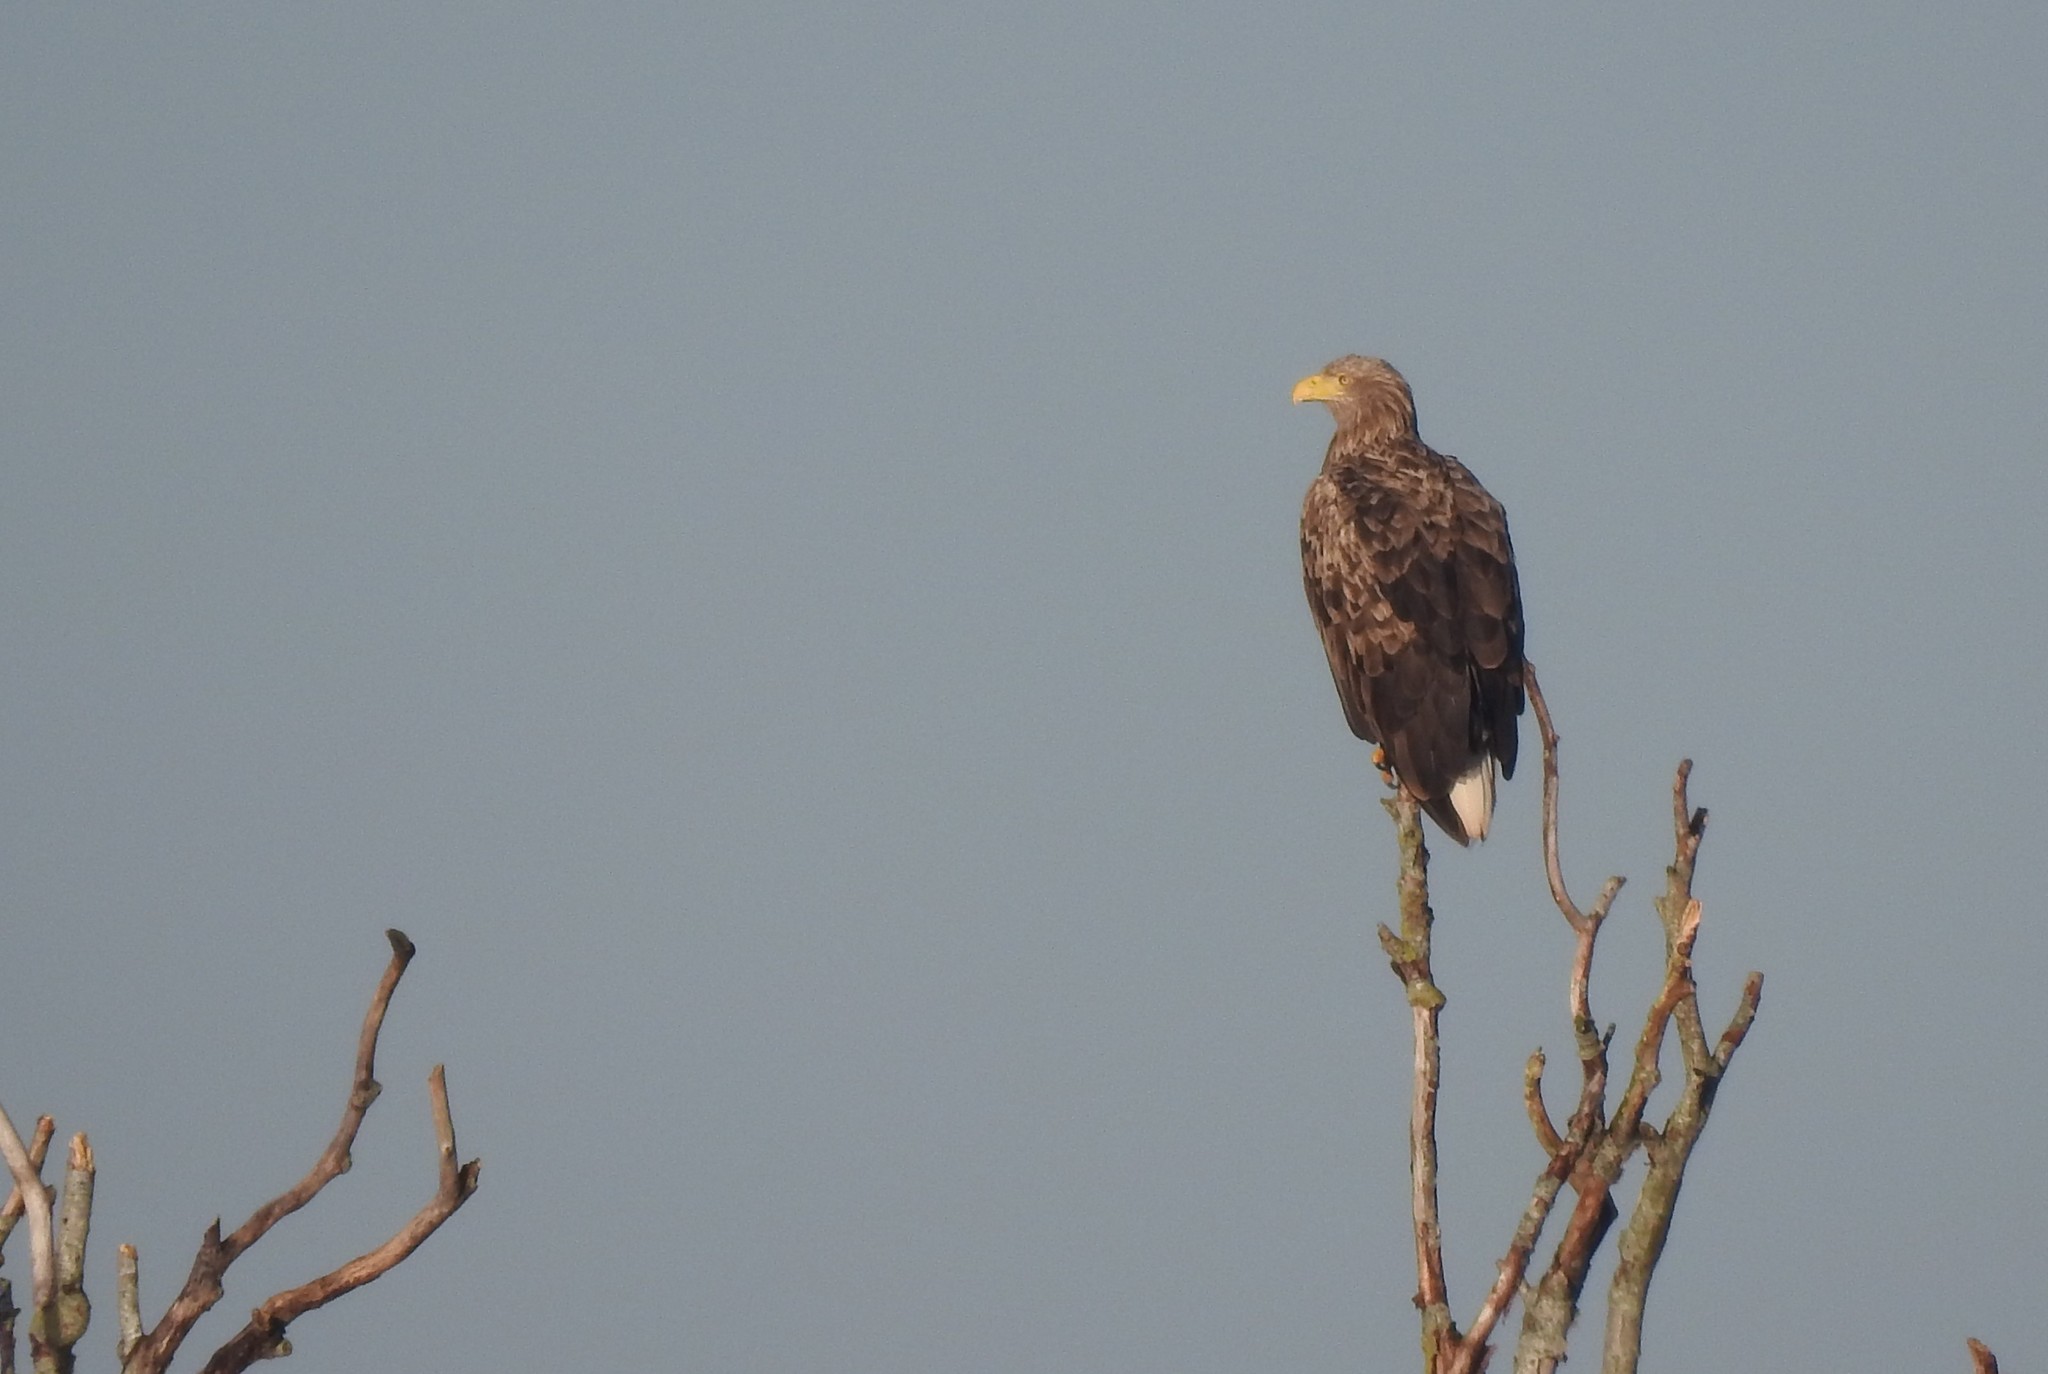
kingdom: Animalia
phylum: Chordata
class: Aves
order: Accipitriformes
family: Accipitridae
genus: Haliaeetus
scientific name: Haliaeetus albicilla
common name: White-tailed eagle
